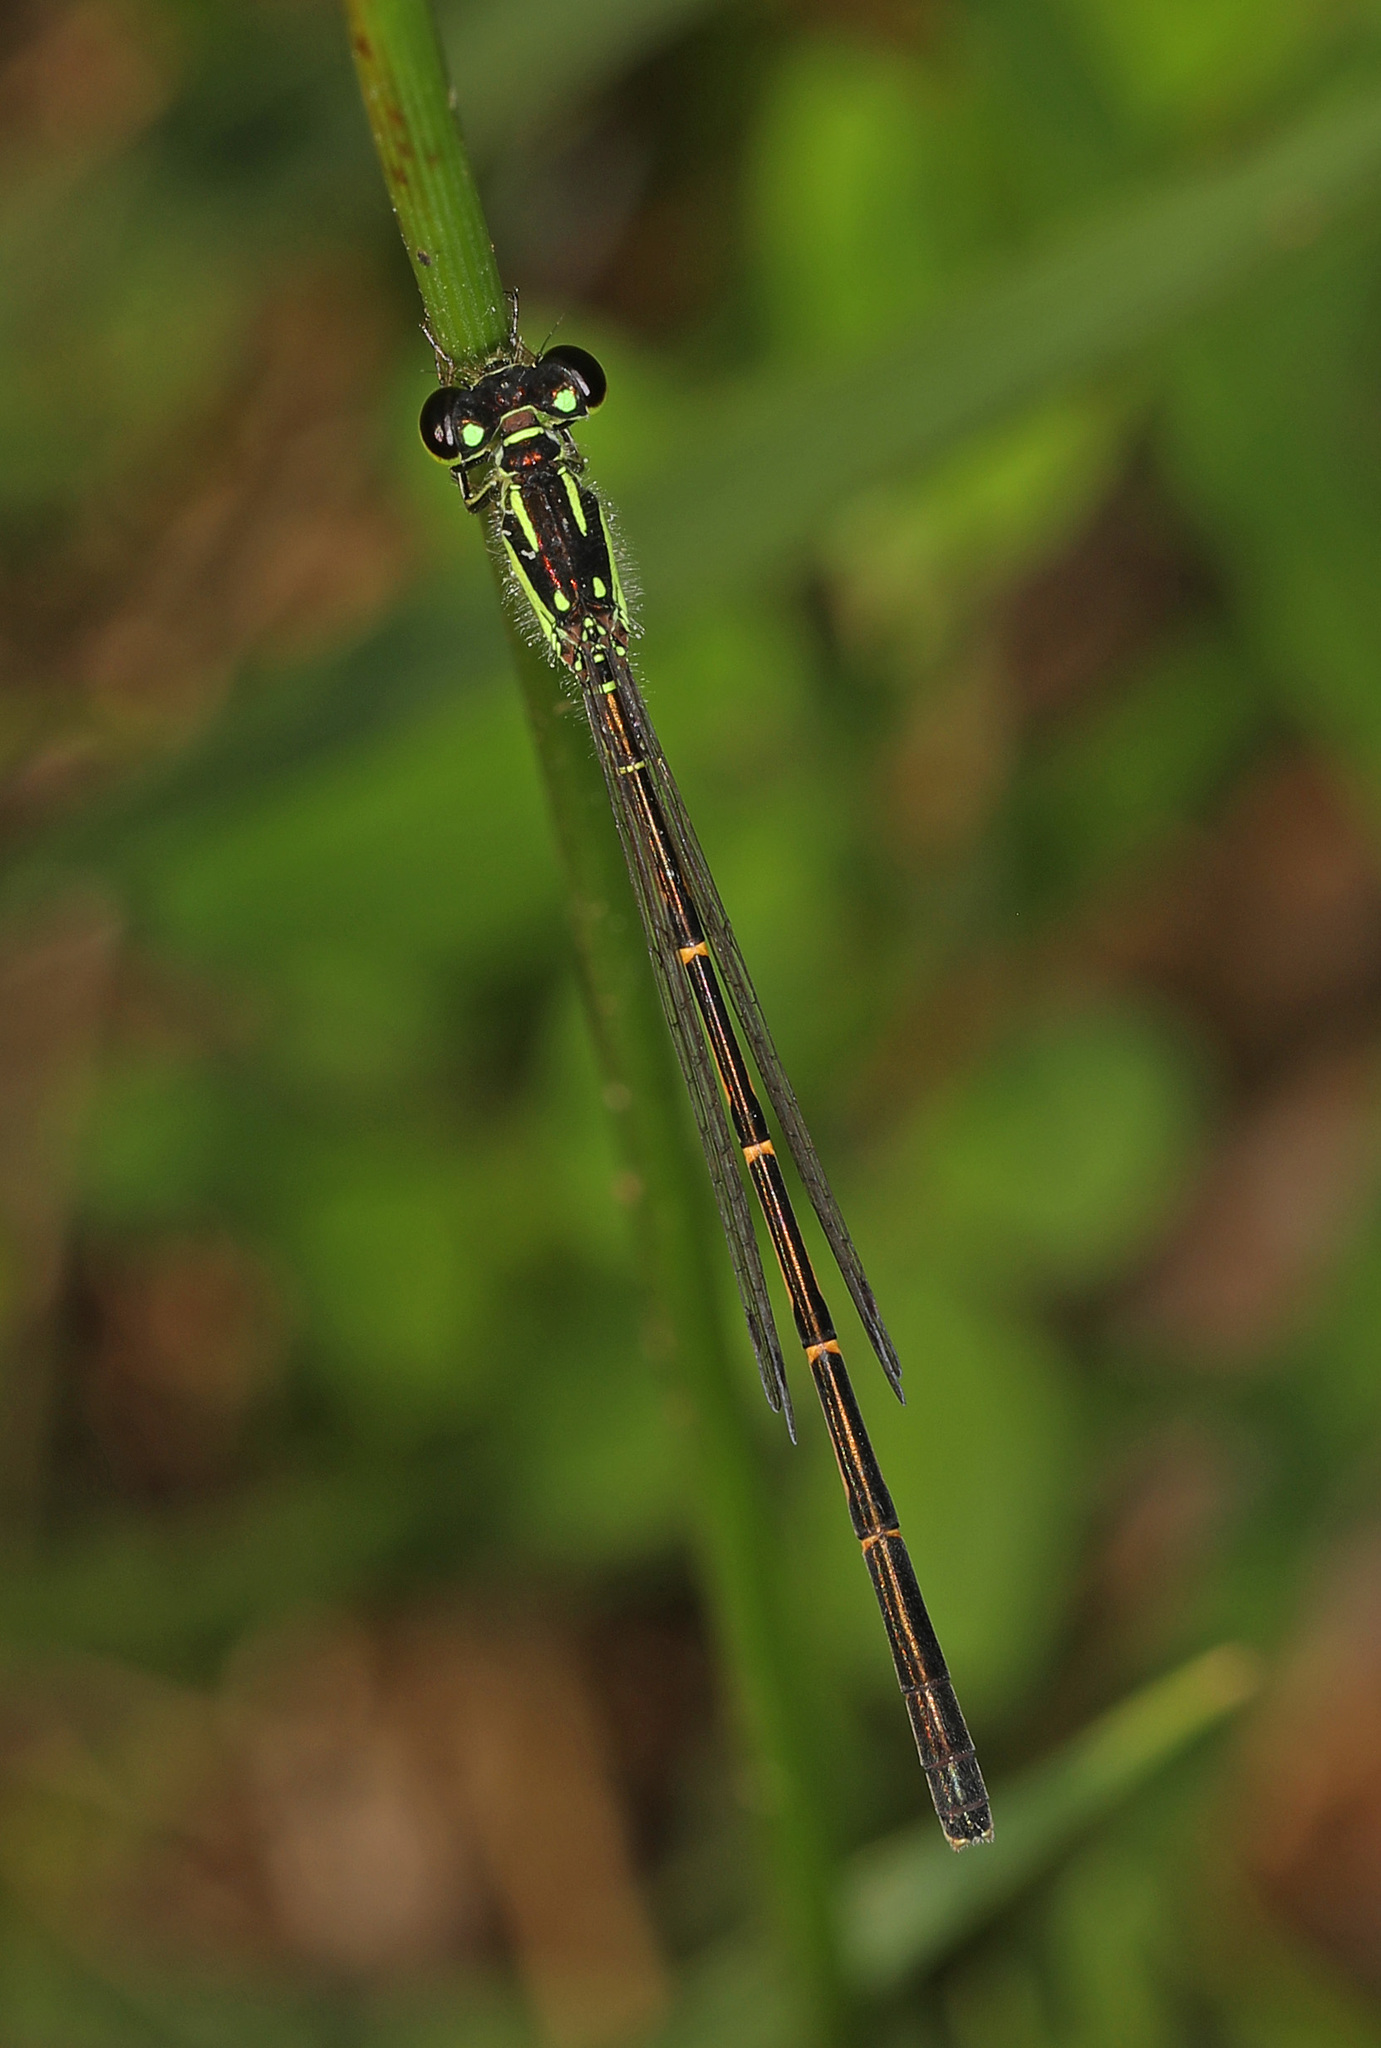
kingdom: Animalia
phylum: Arthropoda
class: Insecta
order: Odonata
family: Coenagrionidae
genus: Ischnura
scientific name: Ischnura posita
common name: Fragile forktail
